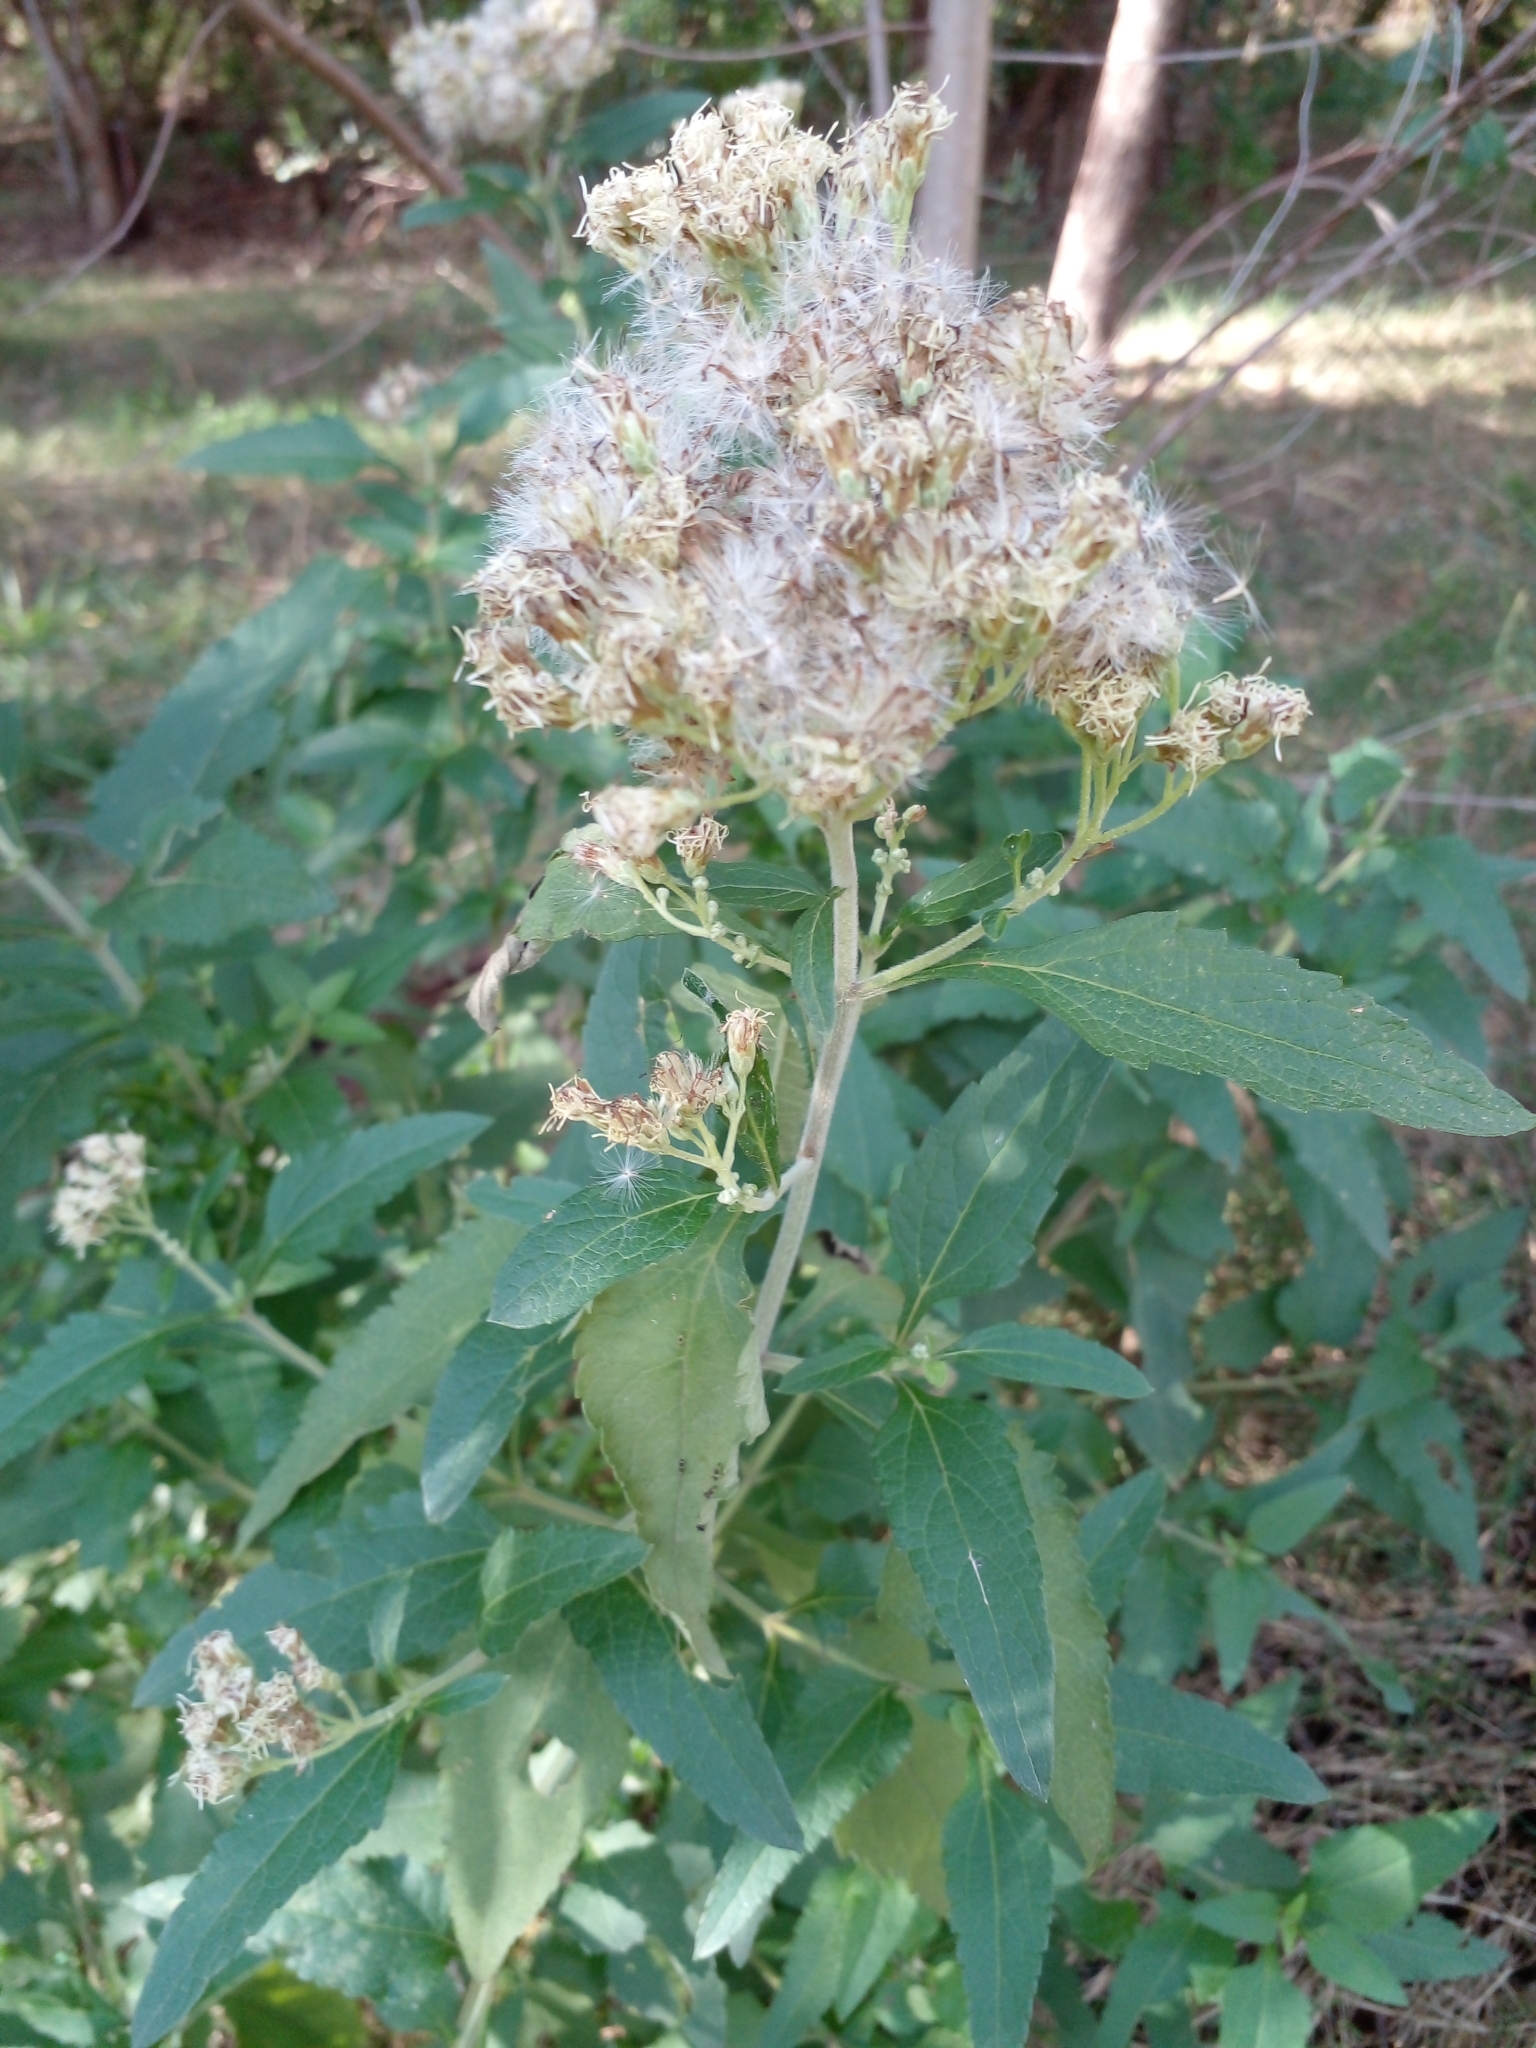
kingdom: Plantae
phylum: Tracheophyta
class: Magnoliopsida
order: Asterales
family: Asteraceae
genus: Austroeupatorium
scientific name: Austroeupatorium inulifolium
